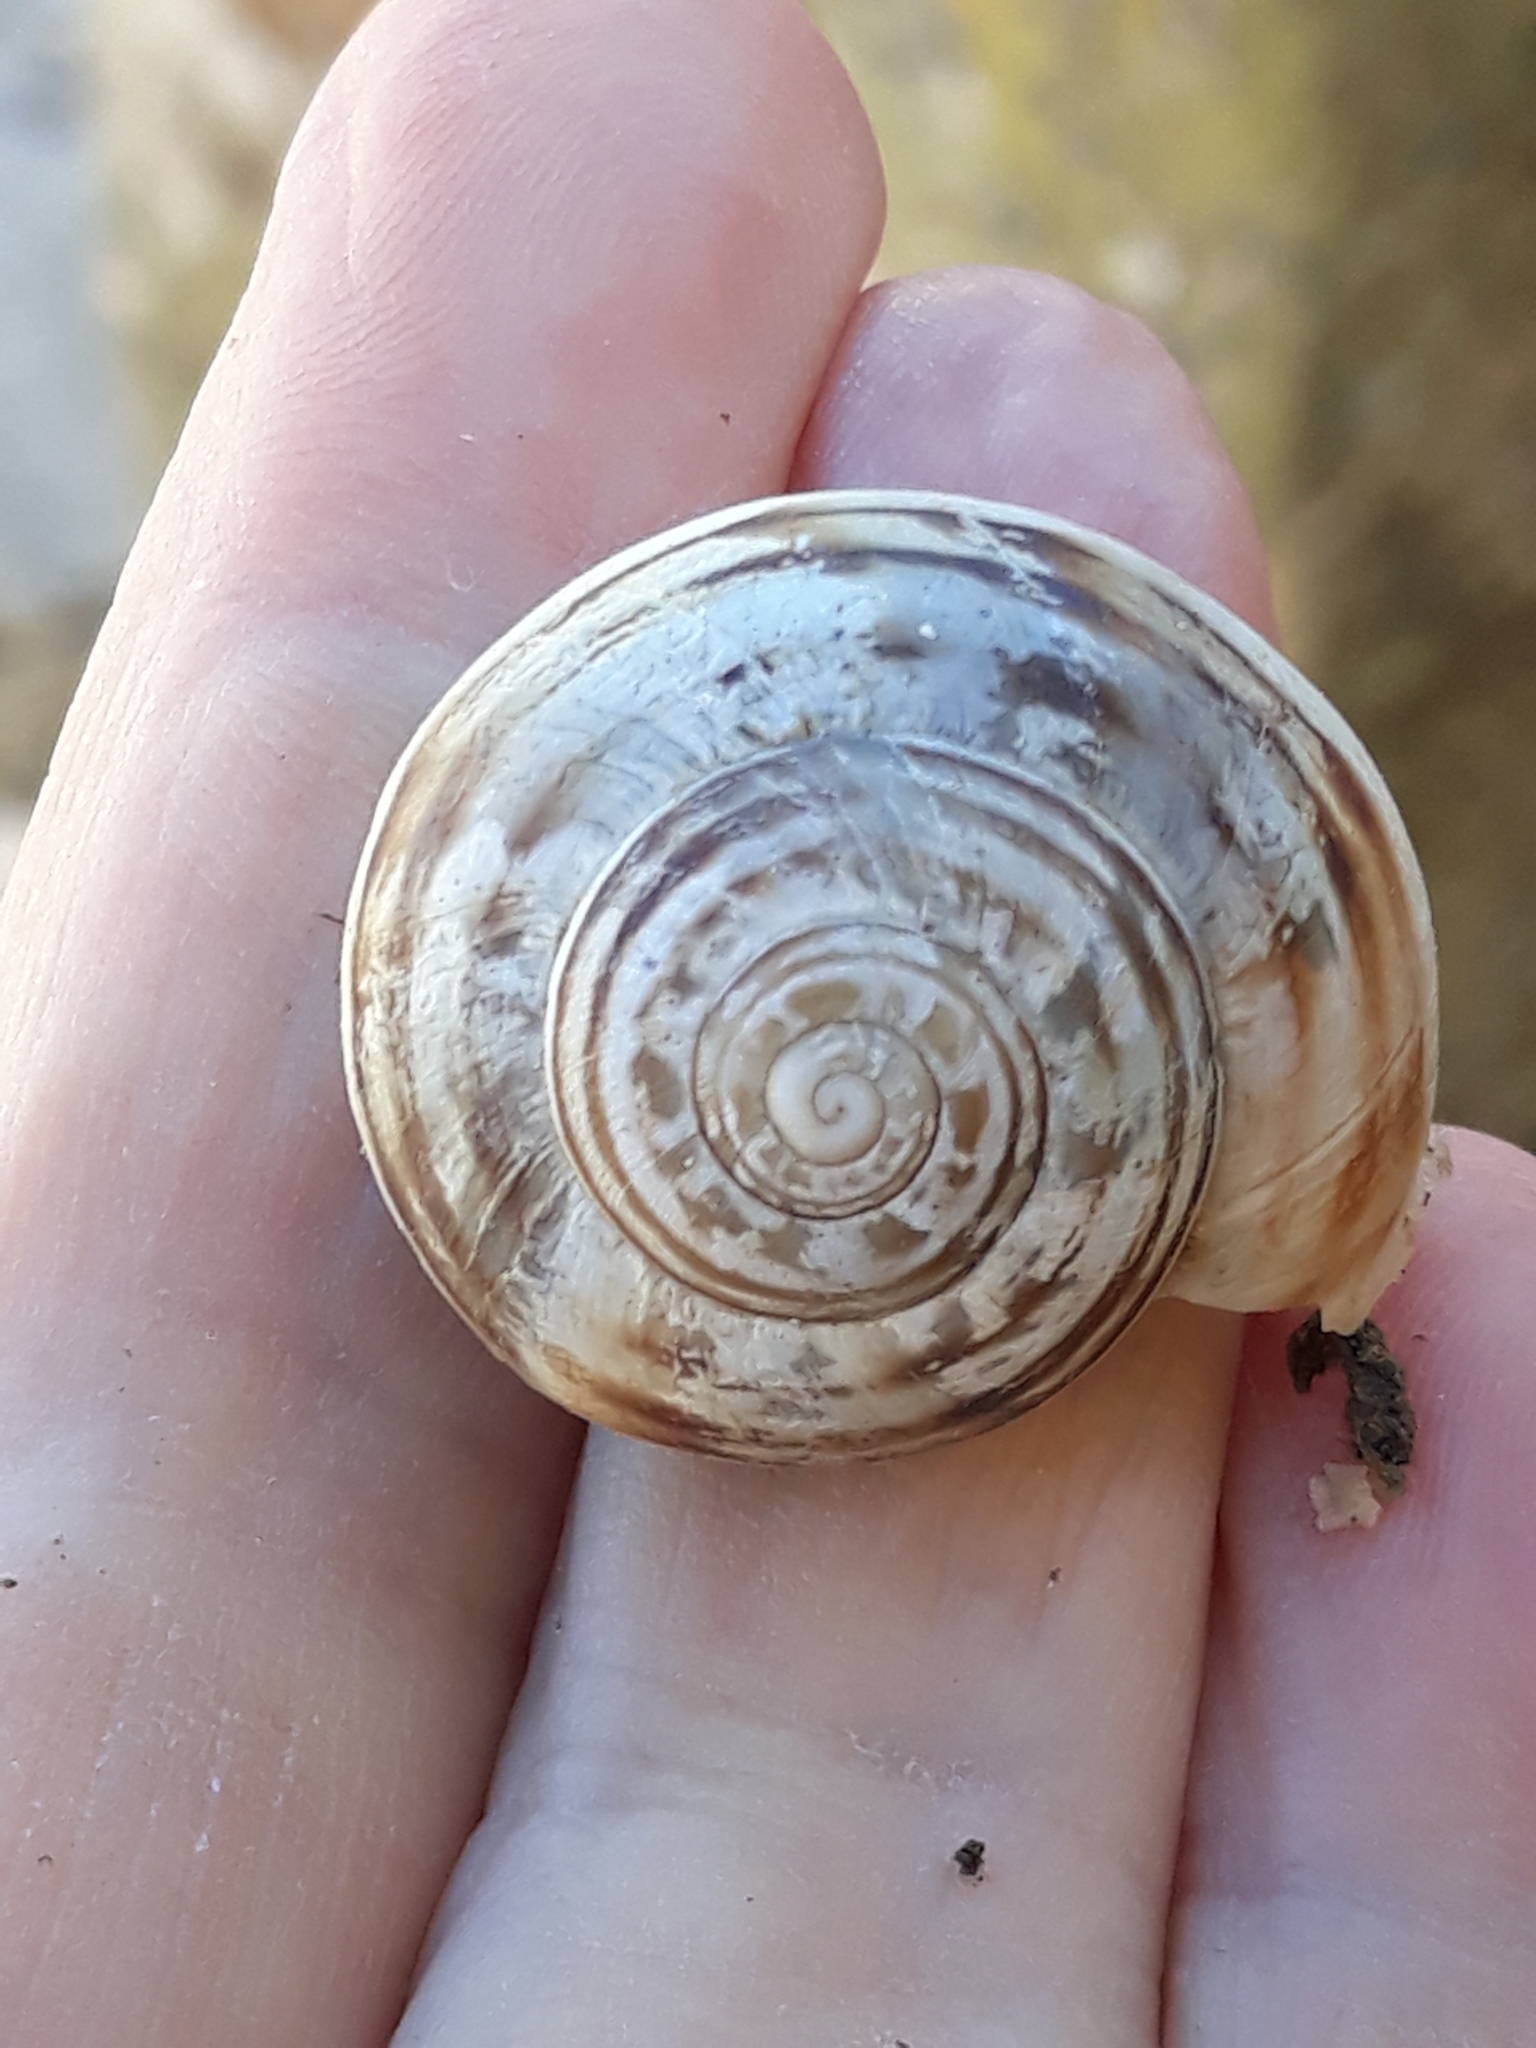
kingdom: Animalia
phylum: Mollusca
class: Gastropoda
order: Stylommatophora
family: Helicidae
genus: Eobania
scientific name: Eobania vermiculata
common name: Chocolateband snail
